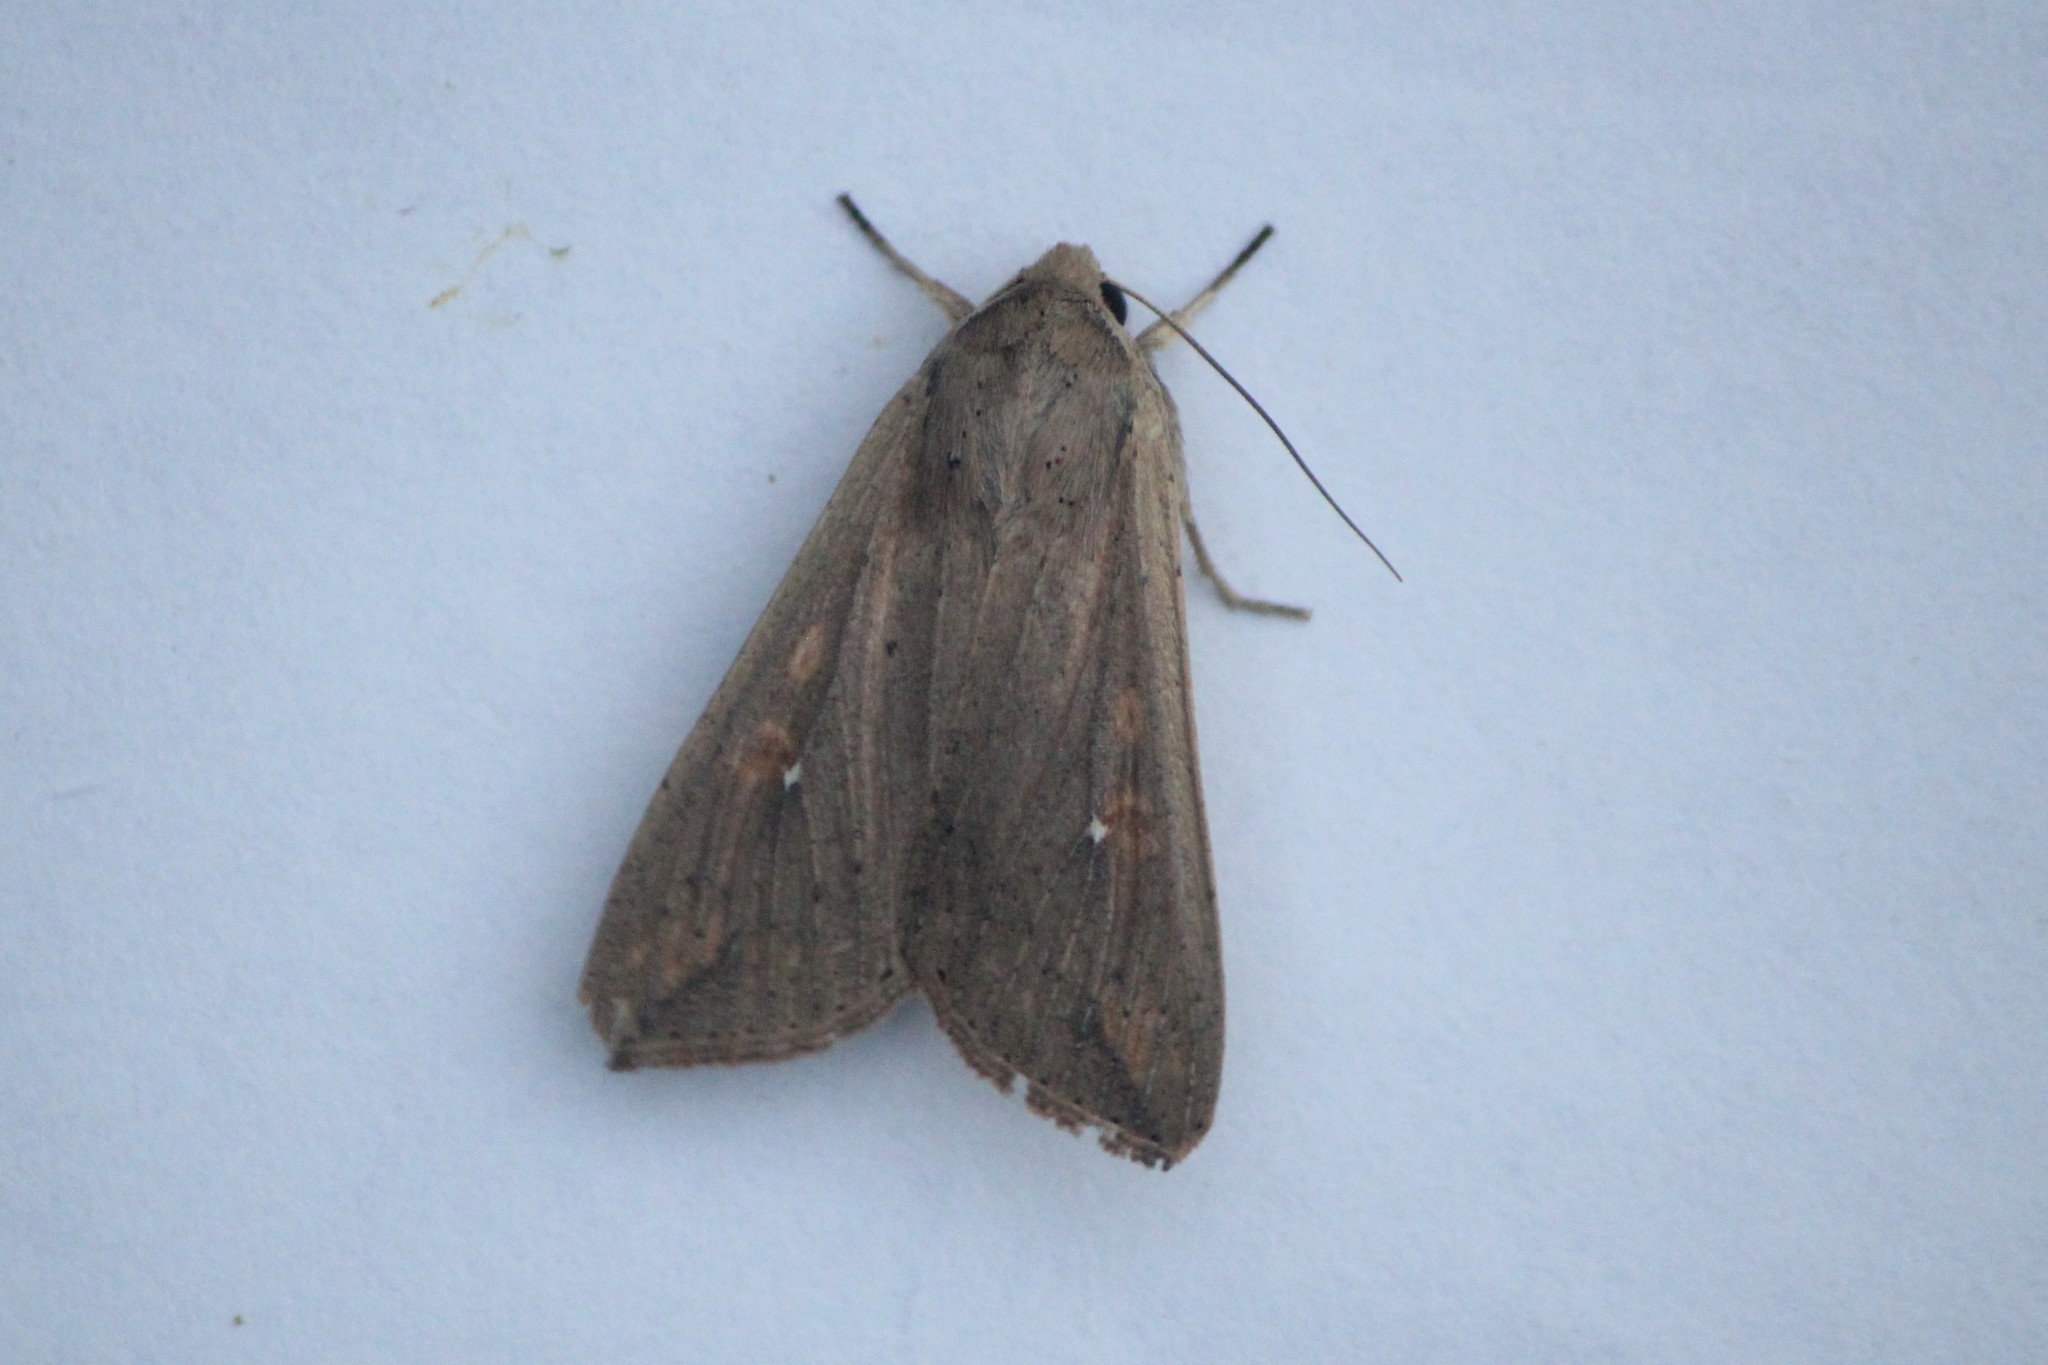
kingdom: Animalia
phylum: Arthropoda
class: Insecta
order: Lepidoptera
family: Noctuidae
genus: Mythimna
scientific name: Mythimna unipuncta
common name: White-speck
